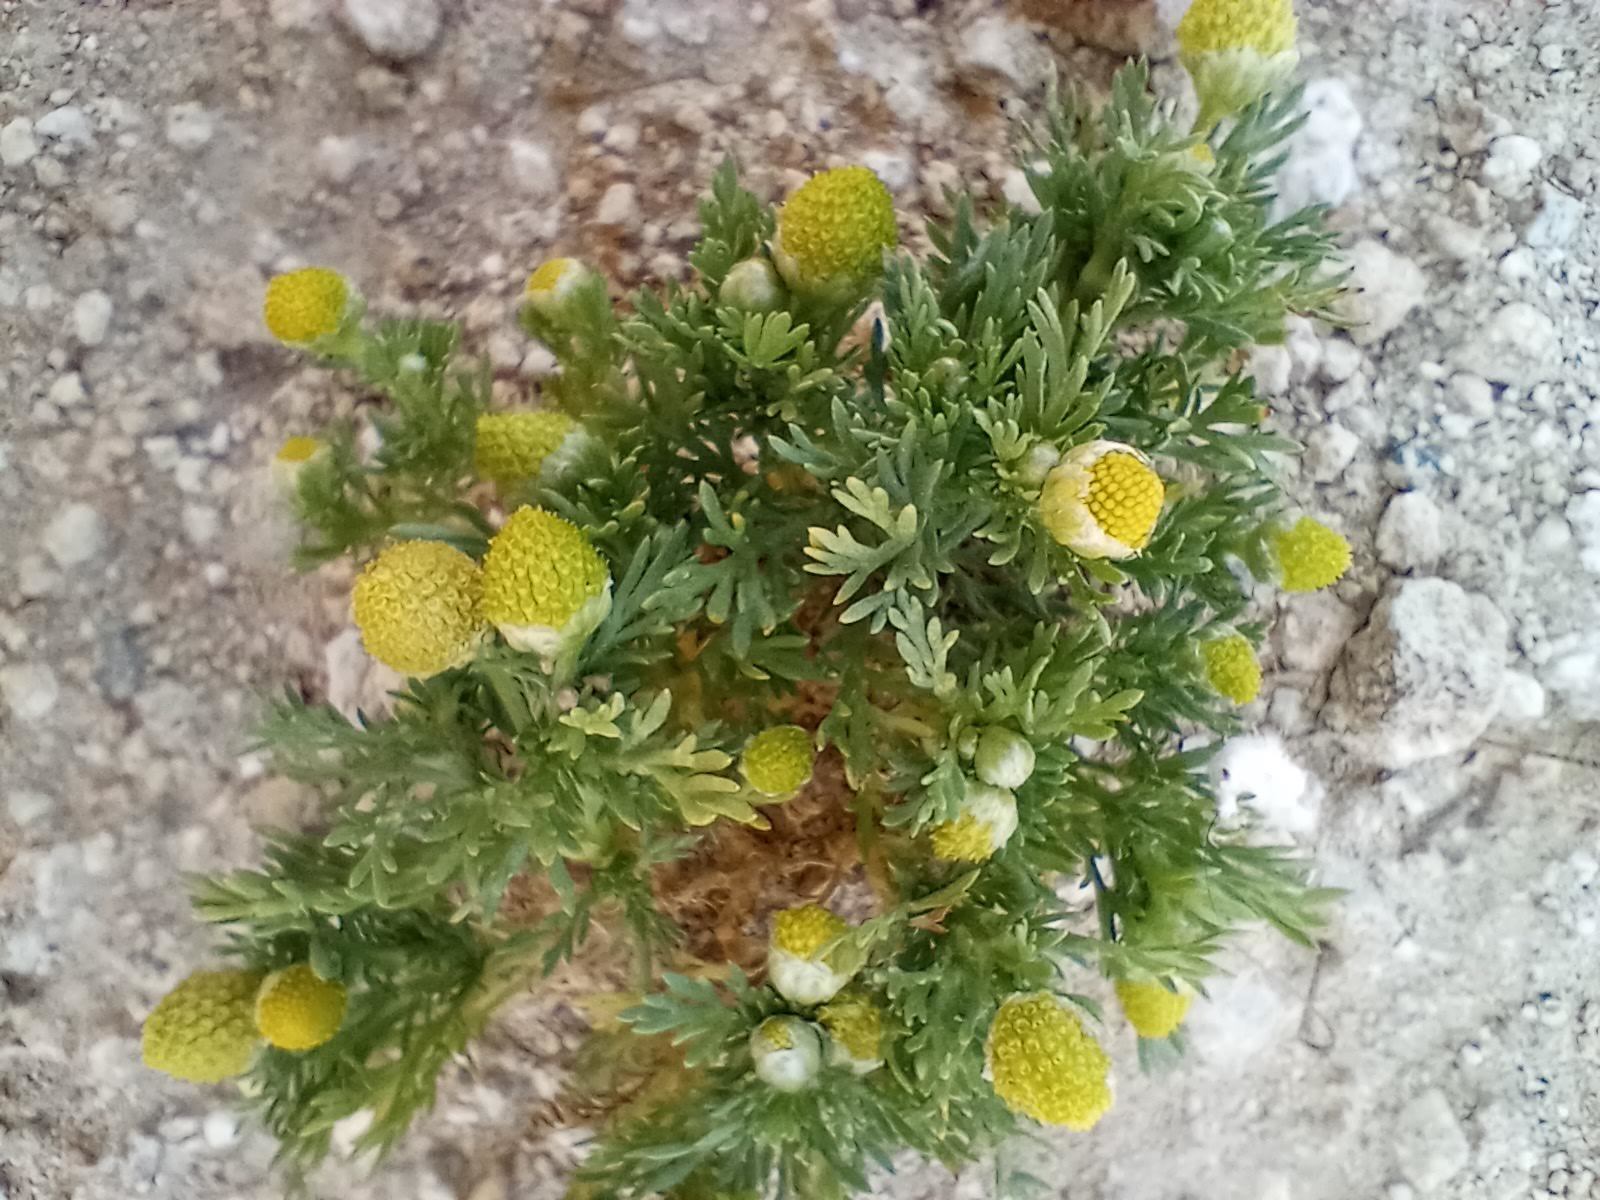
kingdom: Plantae
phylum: Tracheophyta
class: Magnoliopsida
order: Asterales
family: Asteraceae
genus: Matricaria
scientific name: Matricaria discoidea
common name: Disc mayweed
